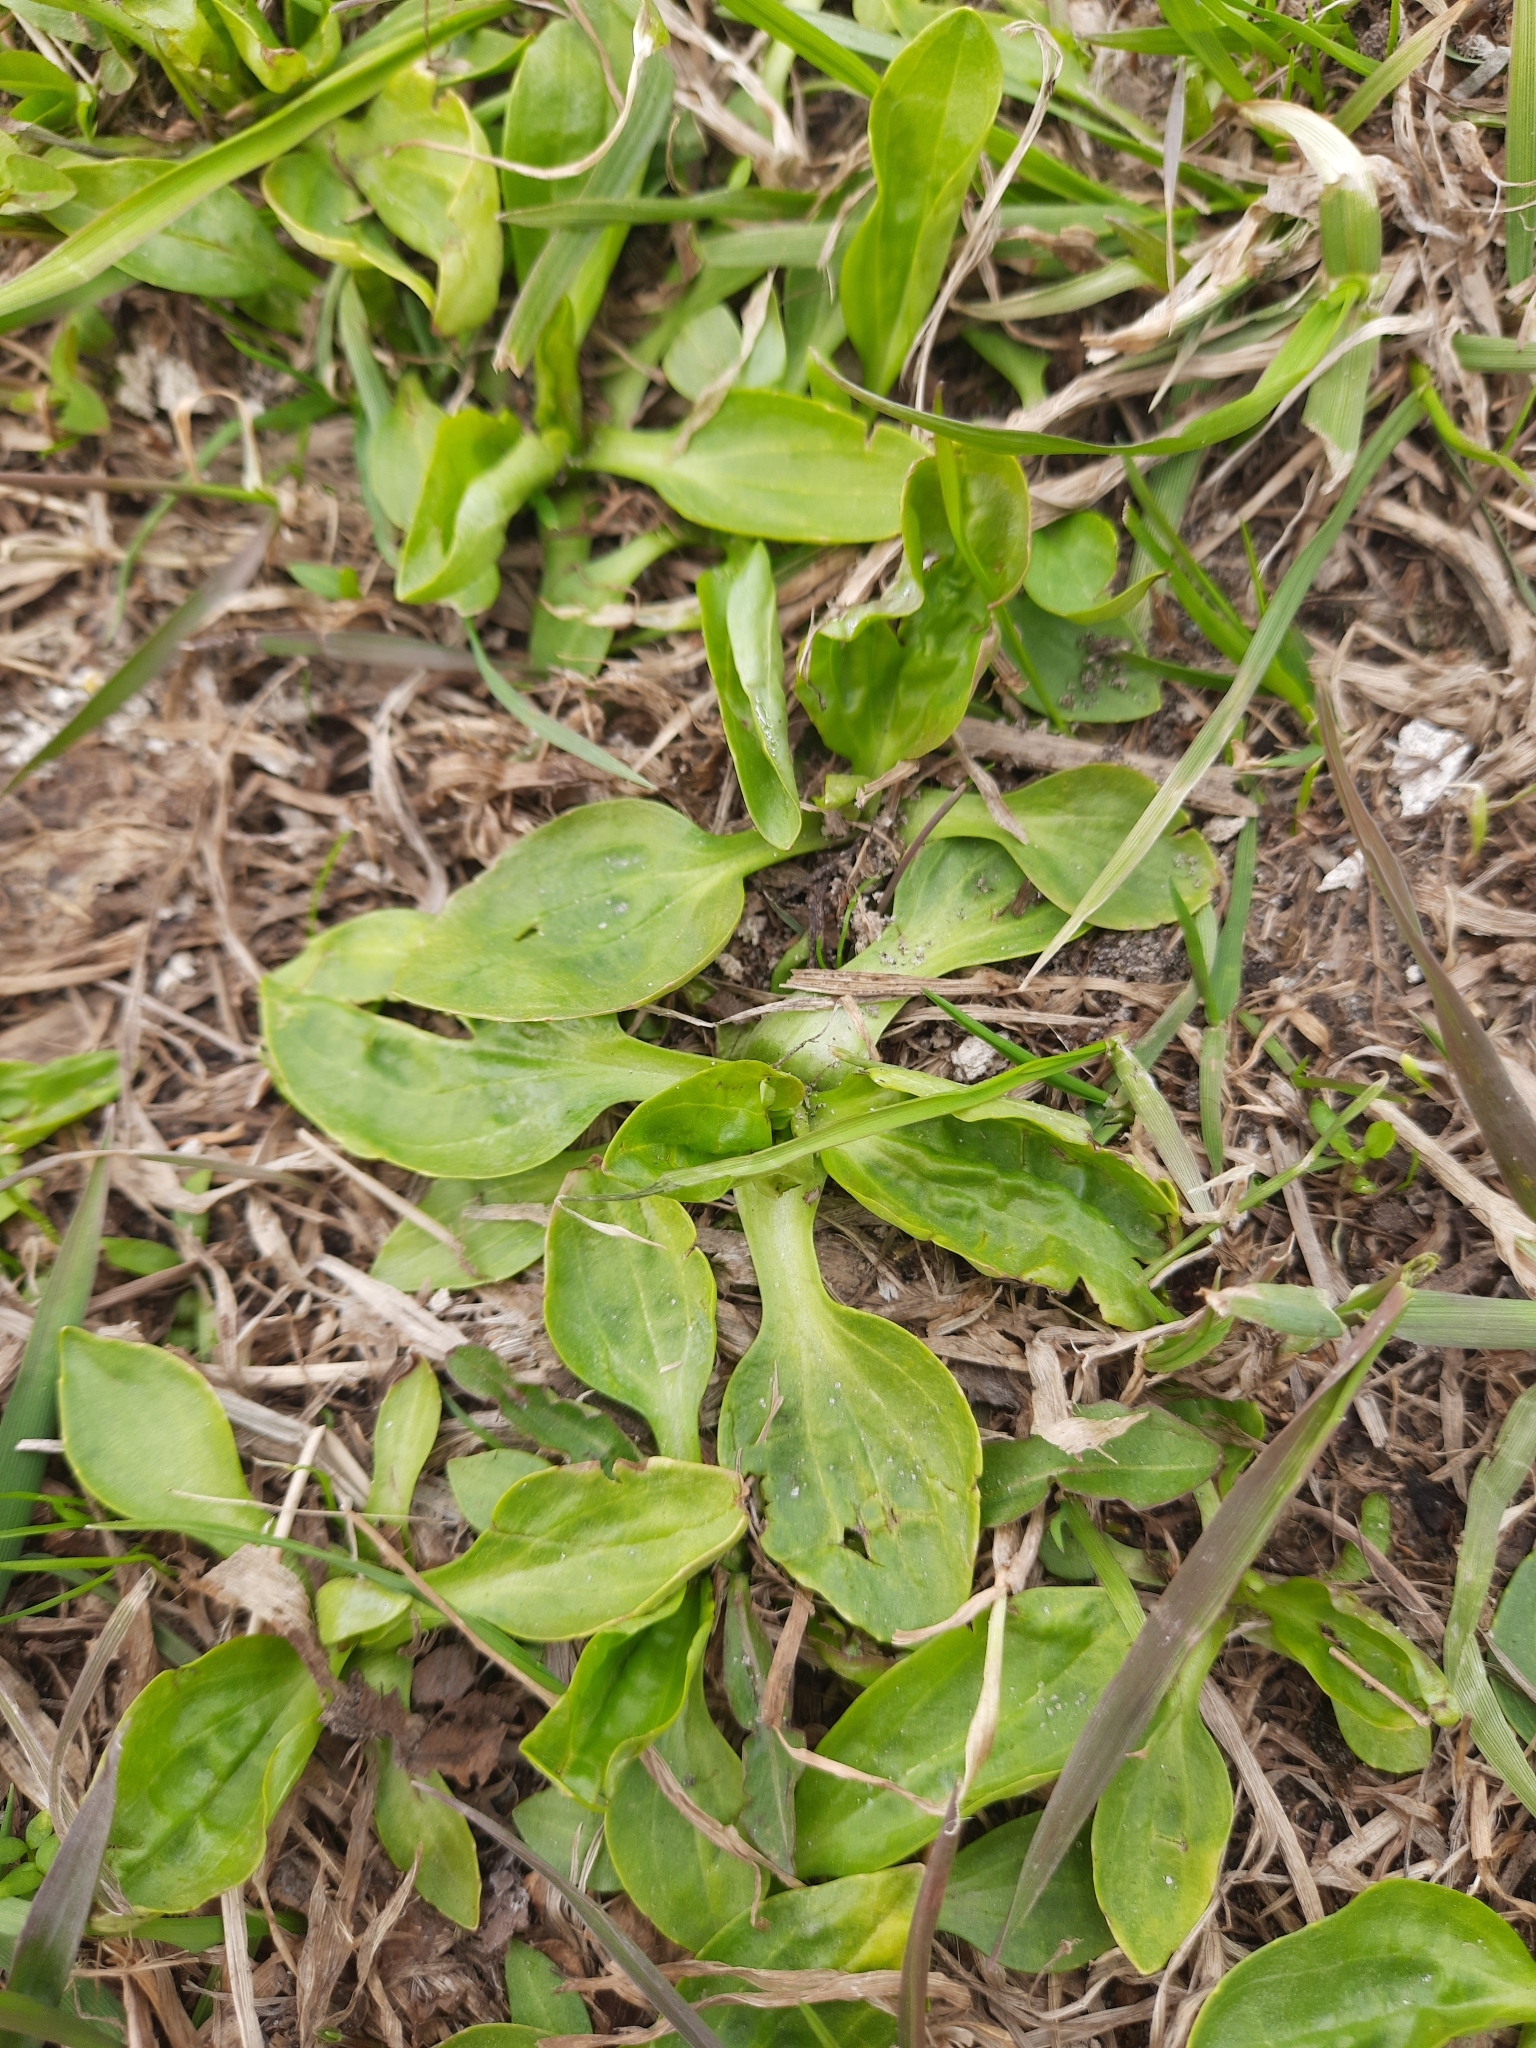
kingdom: Plantae
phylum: Tracheophyta
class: Magnoliopsida
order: Lamiales
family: Plantaginaceae
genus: Plantago
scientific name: Plantago major
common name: Common plantain
